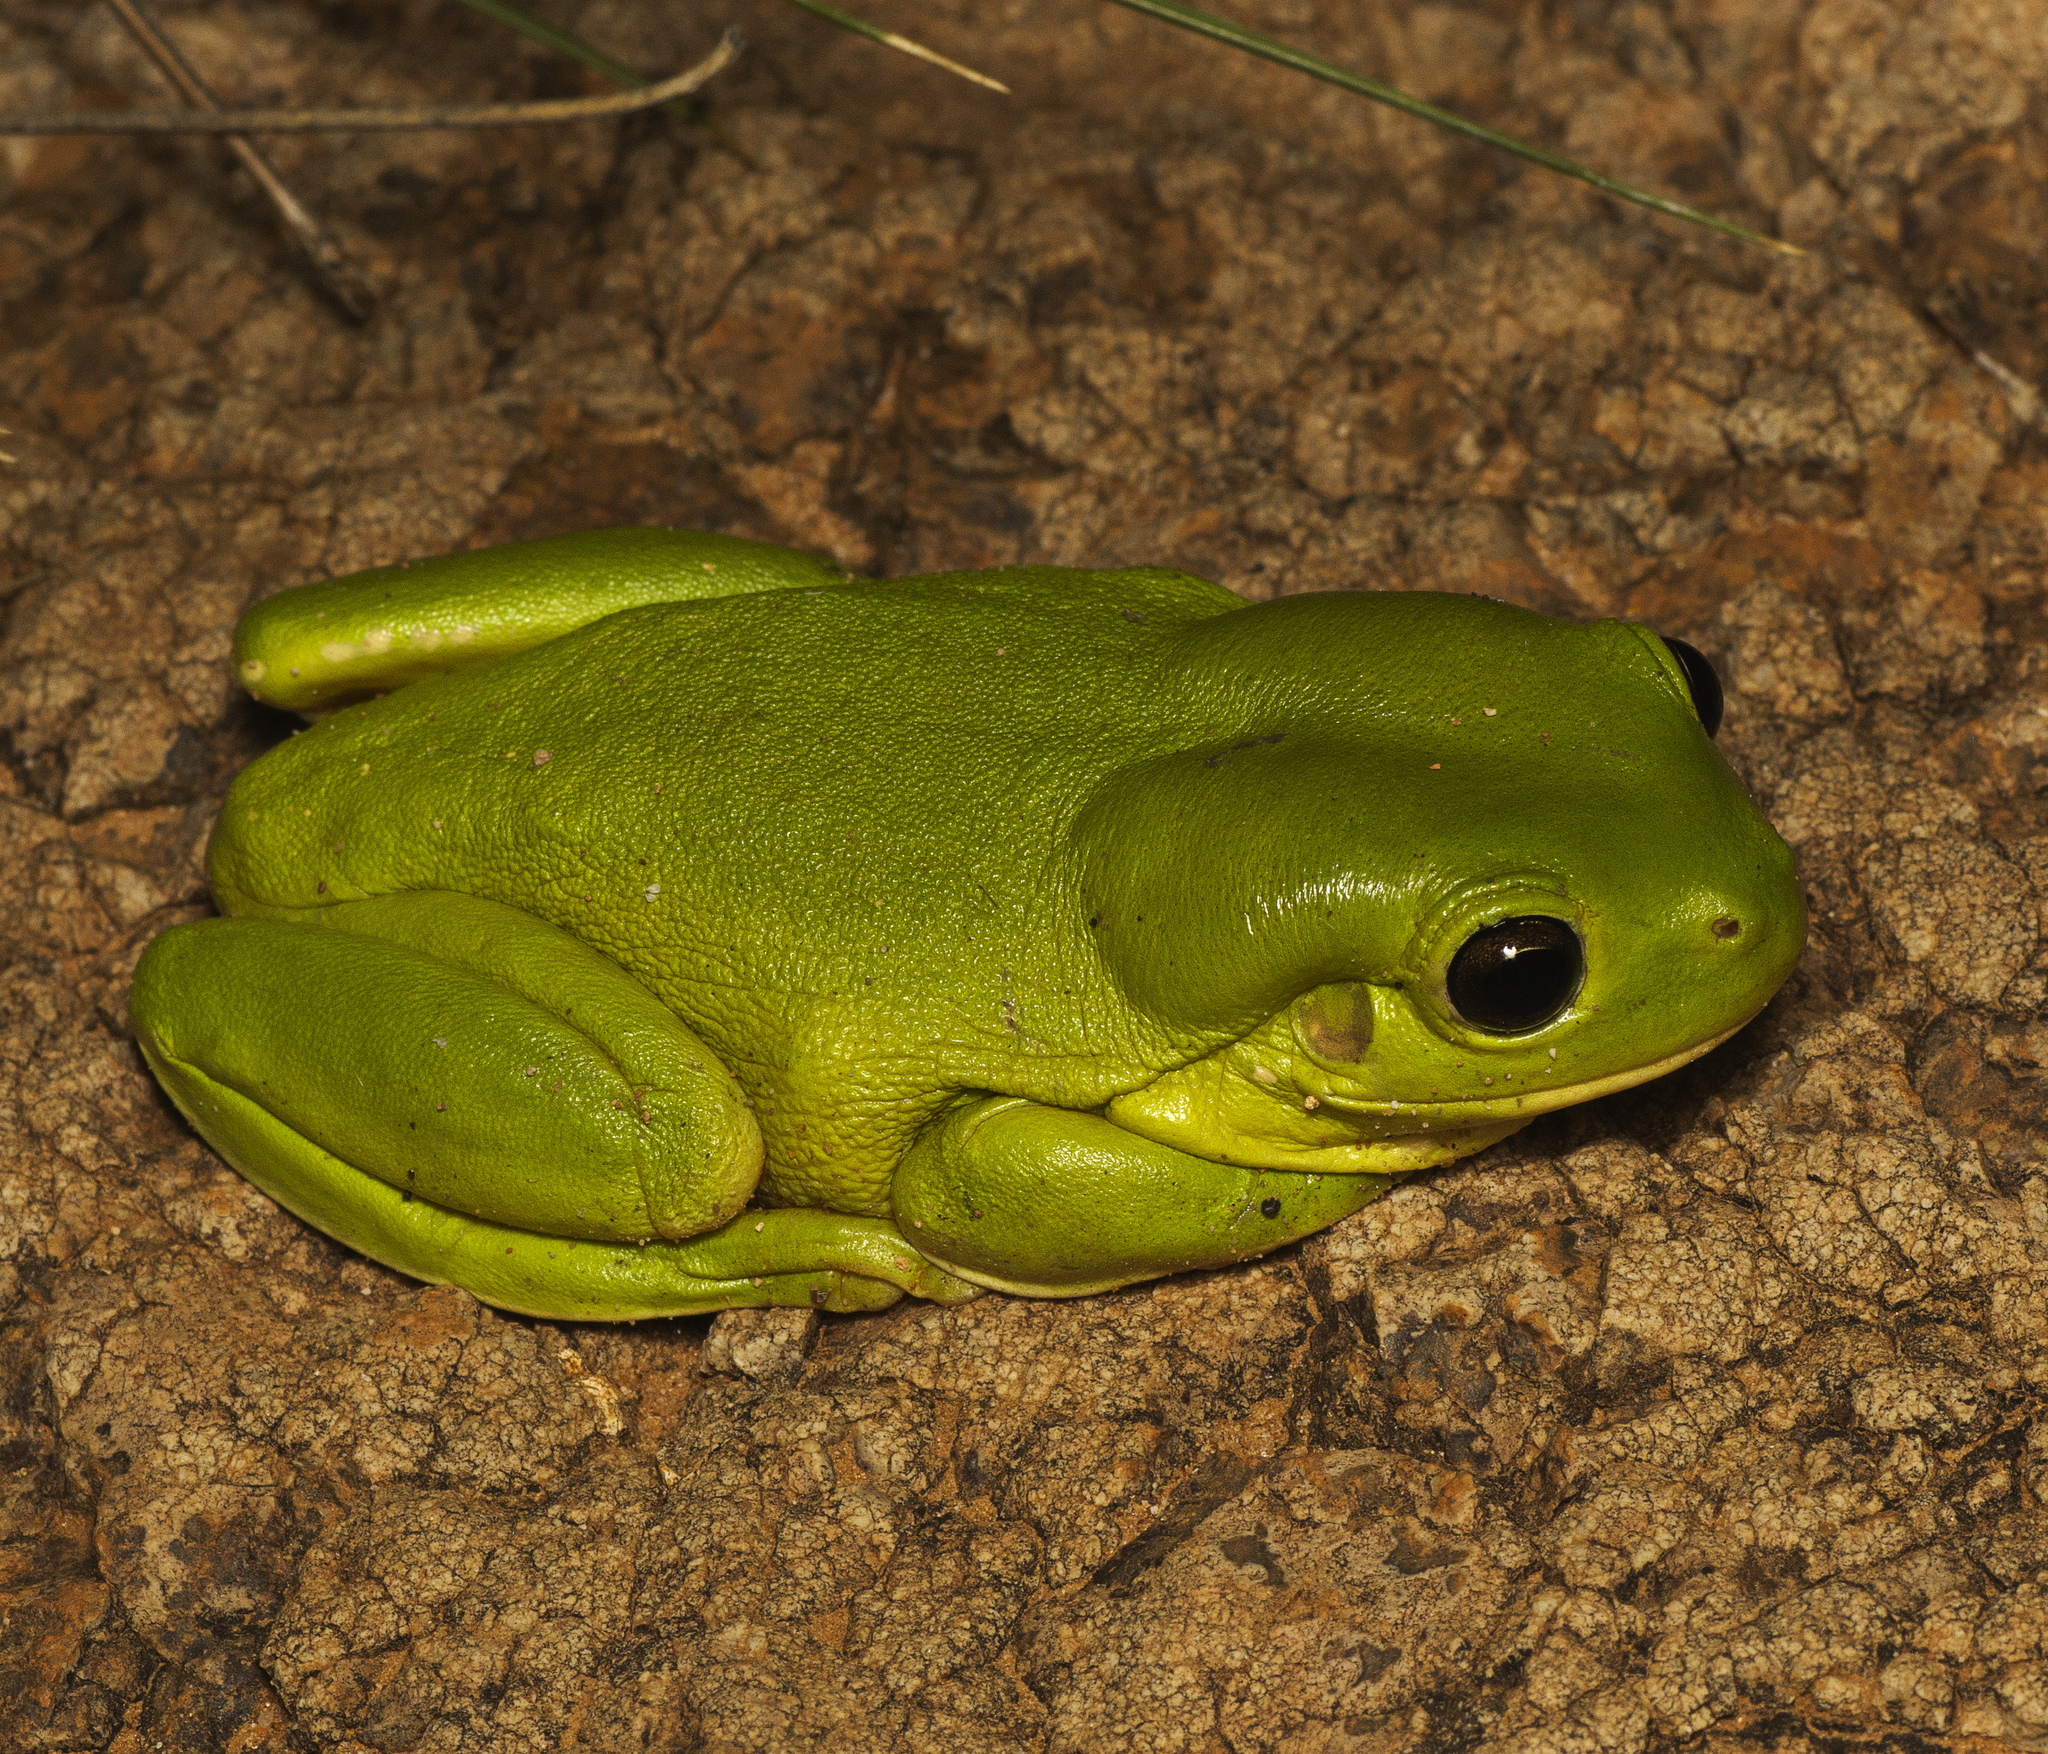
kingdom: Animalia
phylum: Chordata
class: Amphibia
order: Anura
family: Pelodryadidae
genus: Ranoidea
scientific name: Ranoidea caerulea
